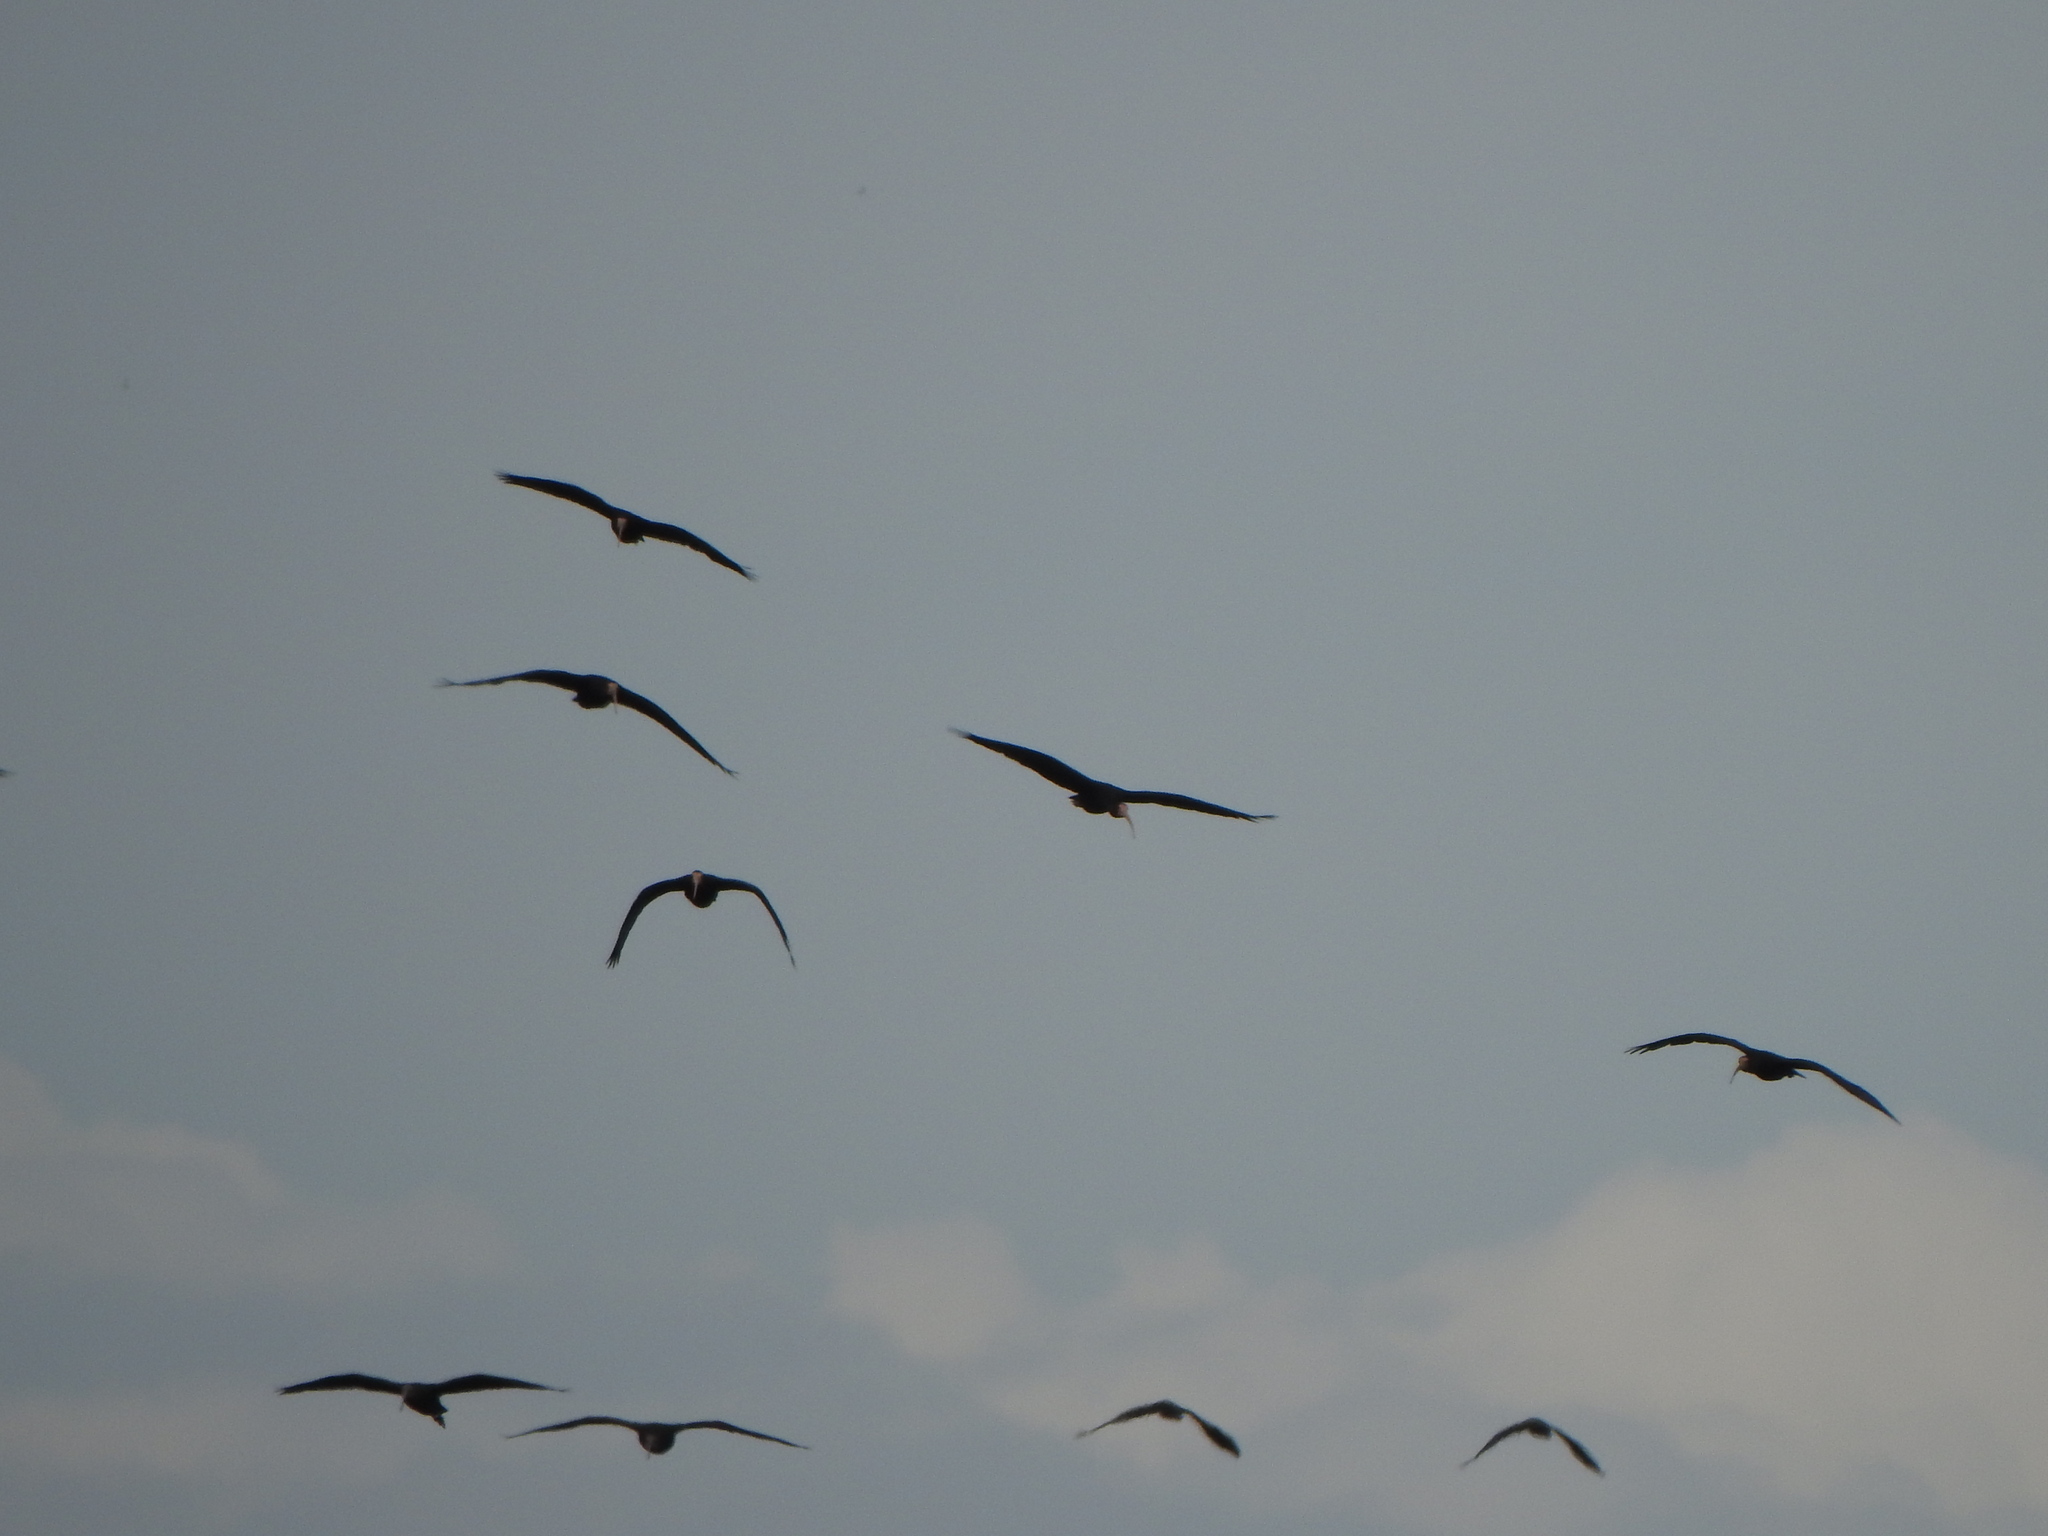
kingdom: Animalia
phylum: Chordata
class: Aves
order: Pelecaniformes
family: Threskiornithidae
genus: Phimosus
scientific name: Phimosus infuscatus
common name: Bare-faced ibis
